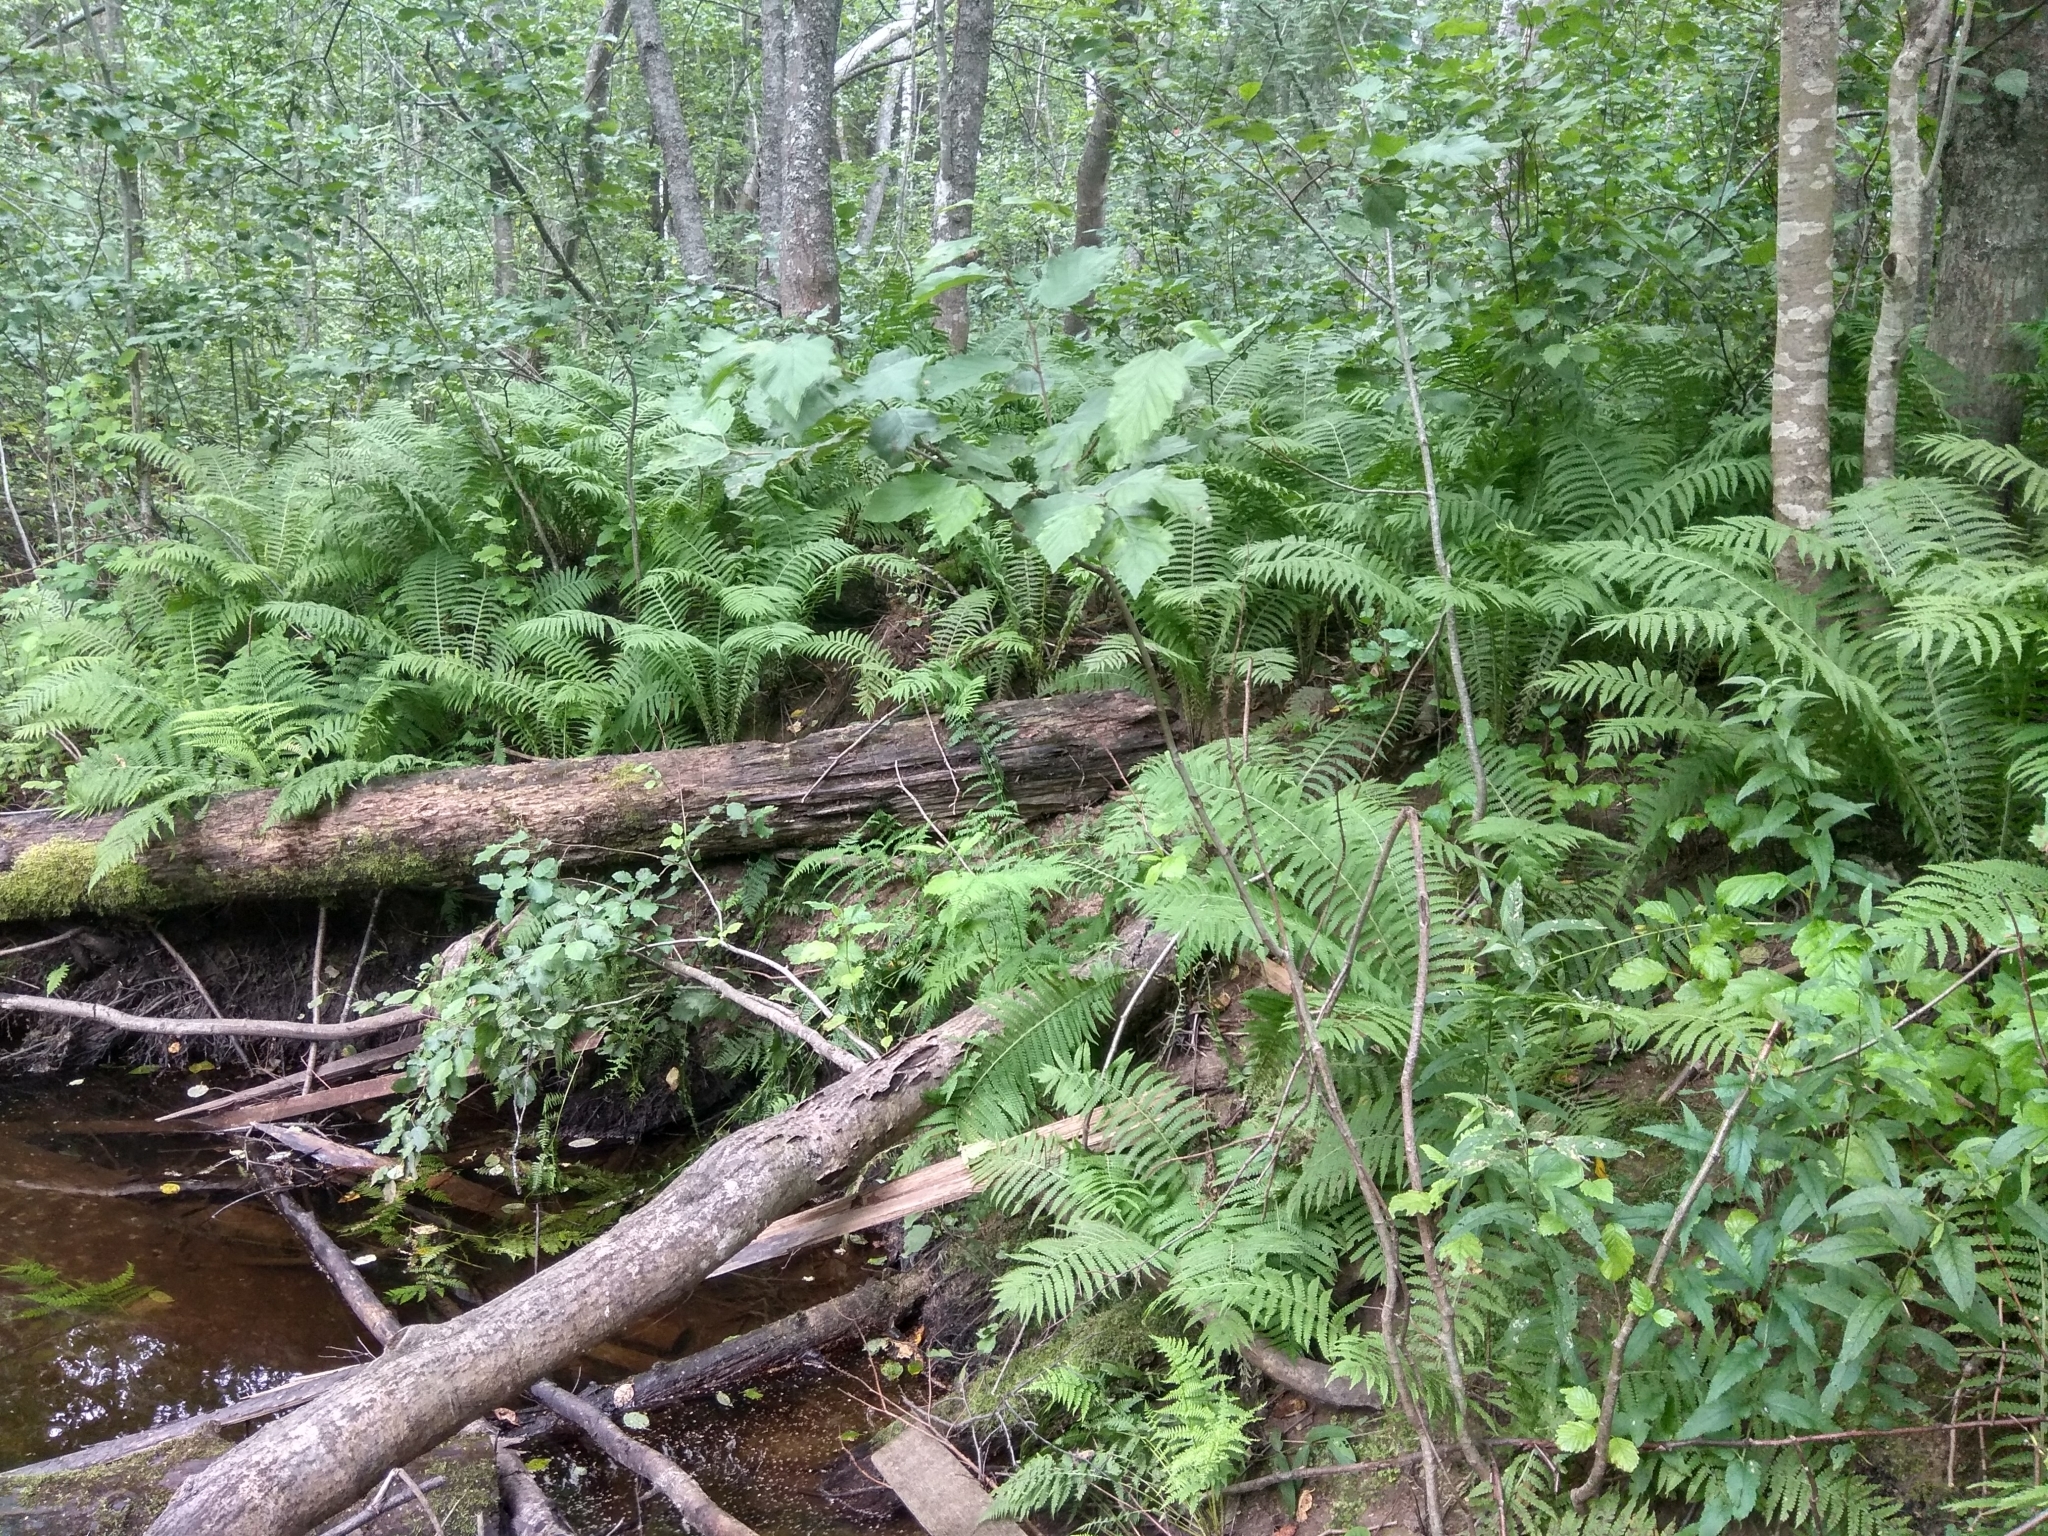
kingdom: Plantae
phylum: Tracheophyta
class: Polypodiopsida
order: Polypodiales
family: Onocleaceae
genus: Matteuccia
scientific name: Matteuccia struthiopteris
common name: Ostrich fern
